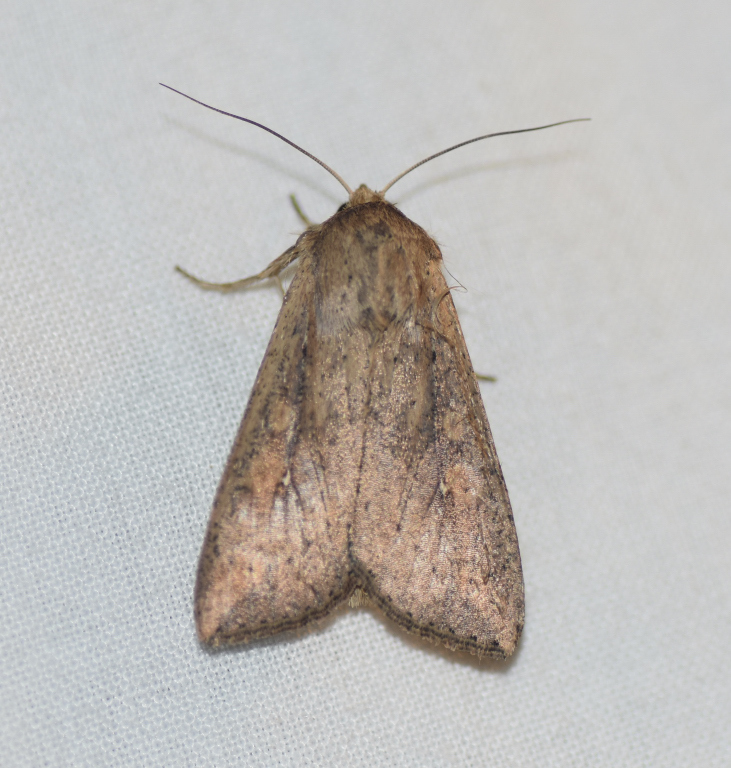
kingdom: Animalia
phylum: Arthropoda
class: Insecta
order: Lepidoptera
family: Noctuidae
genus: Mythimna
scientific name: Mythimna unipuncta
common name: White-speck
